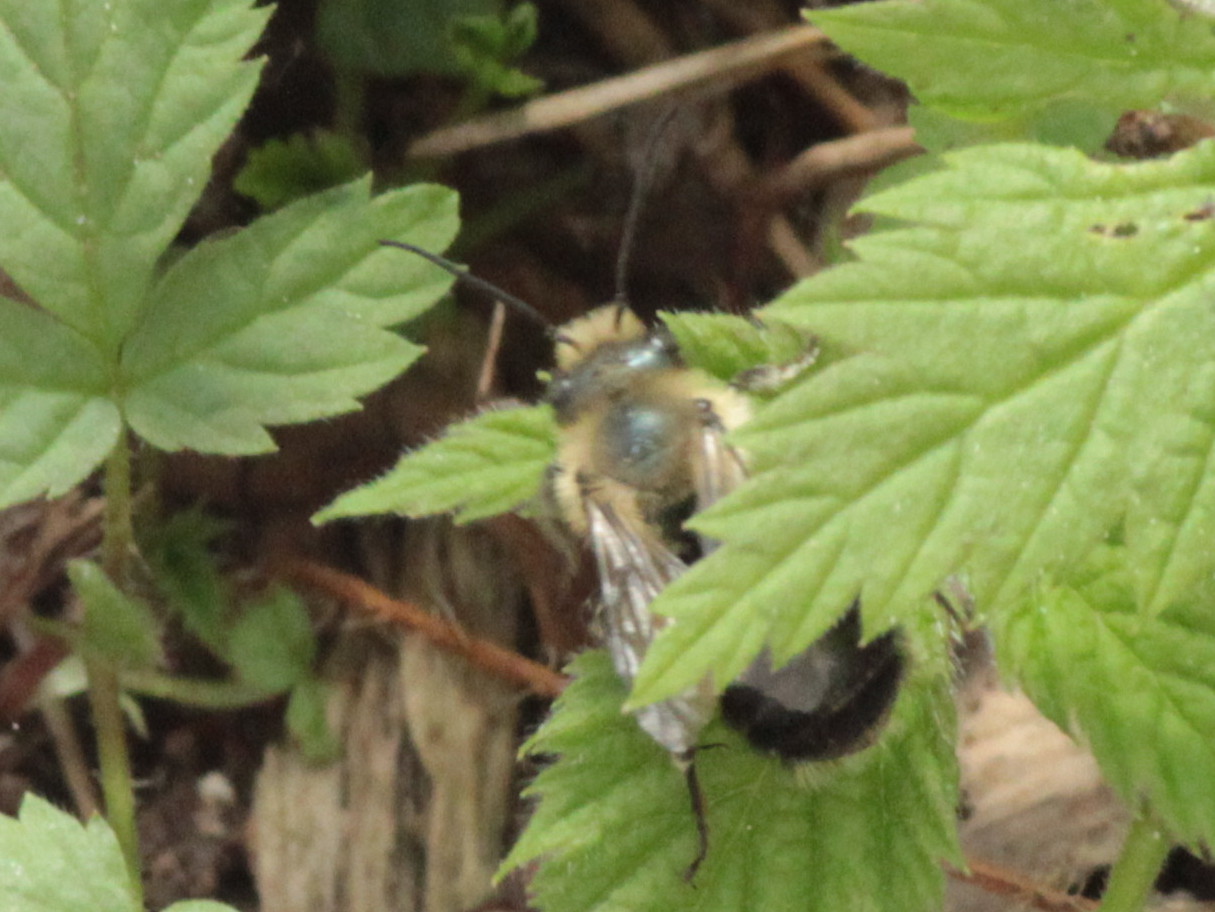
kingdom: Animalia
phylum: Arthropoda
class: Insecta
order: Hymenoptera
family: Megachilidae
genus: Osmia
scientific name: Osmia bucephala
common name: Bufflehead mason bee
